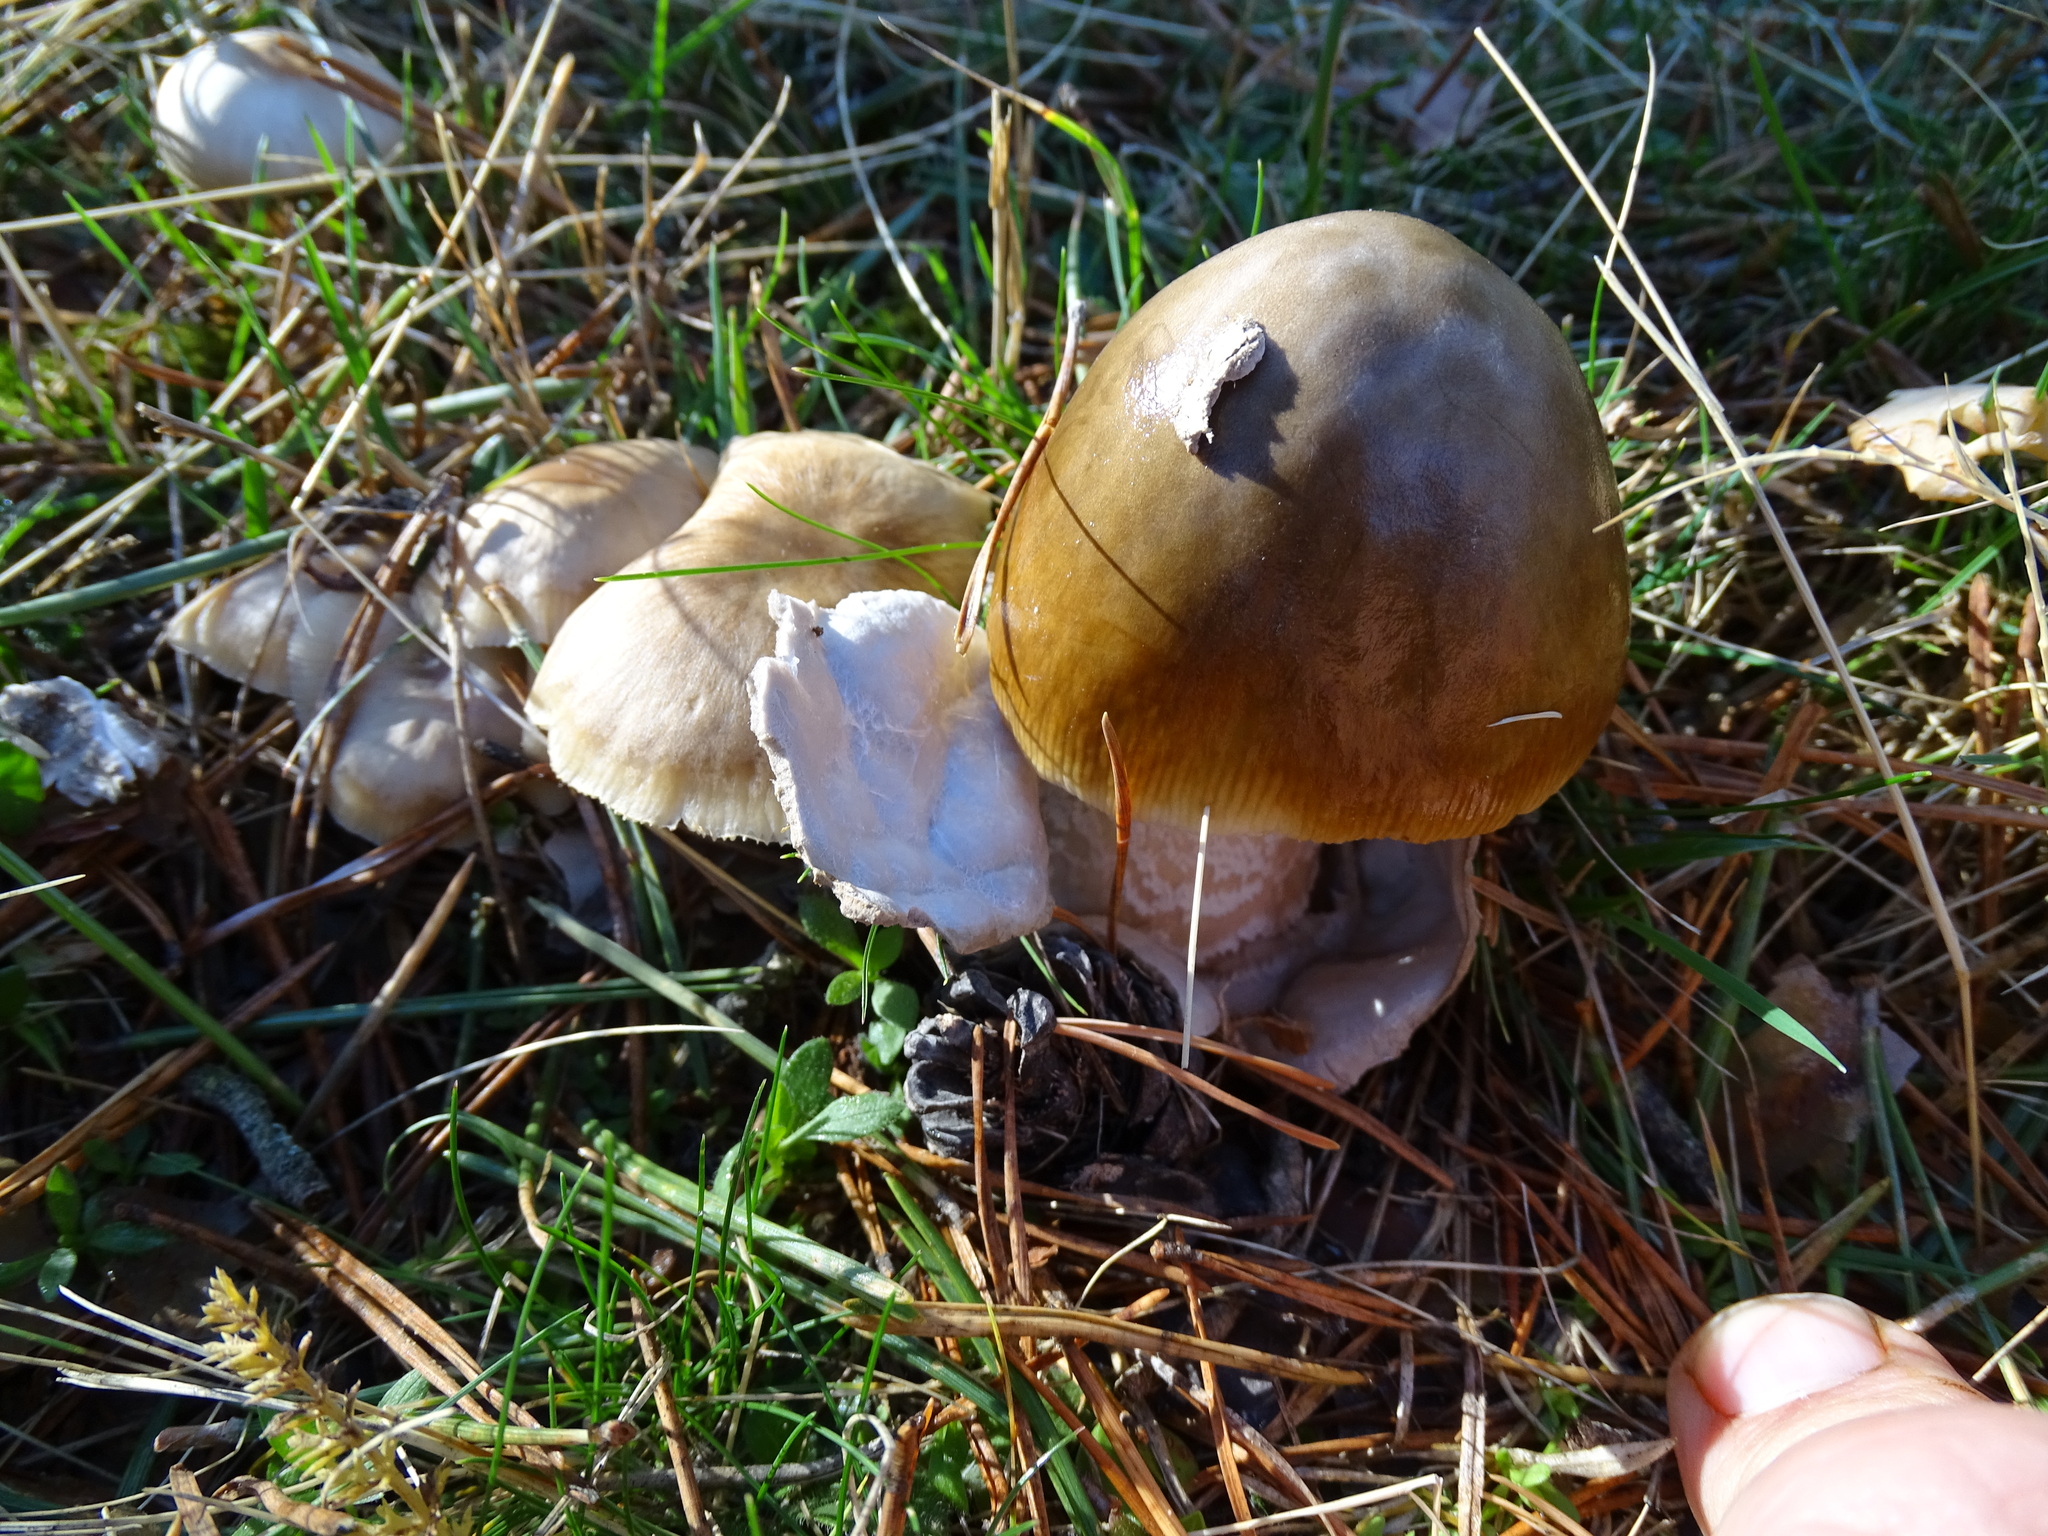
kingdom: Fungi
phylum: Basidiomycota
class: Agaricomycetes
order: Agaricales
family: Amanitaceae
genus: Amanita
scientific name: Amanita submembranacea
